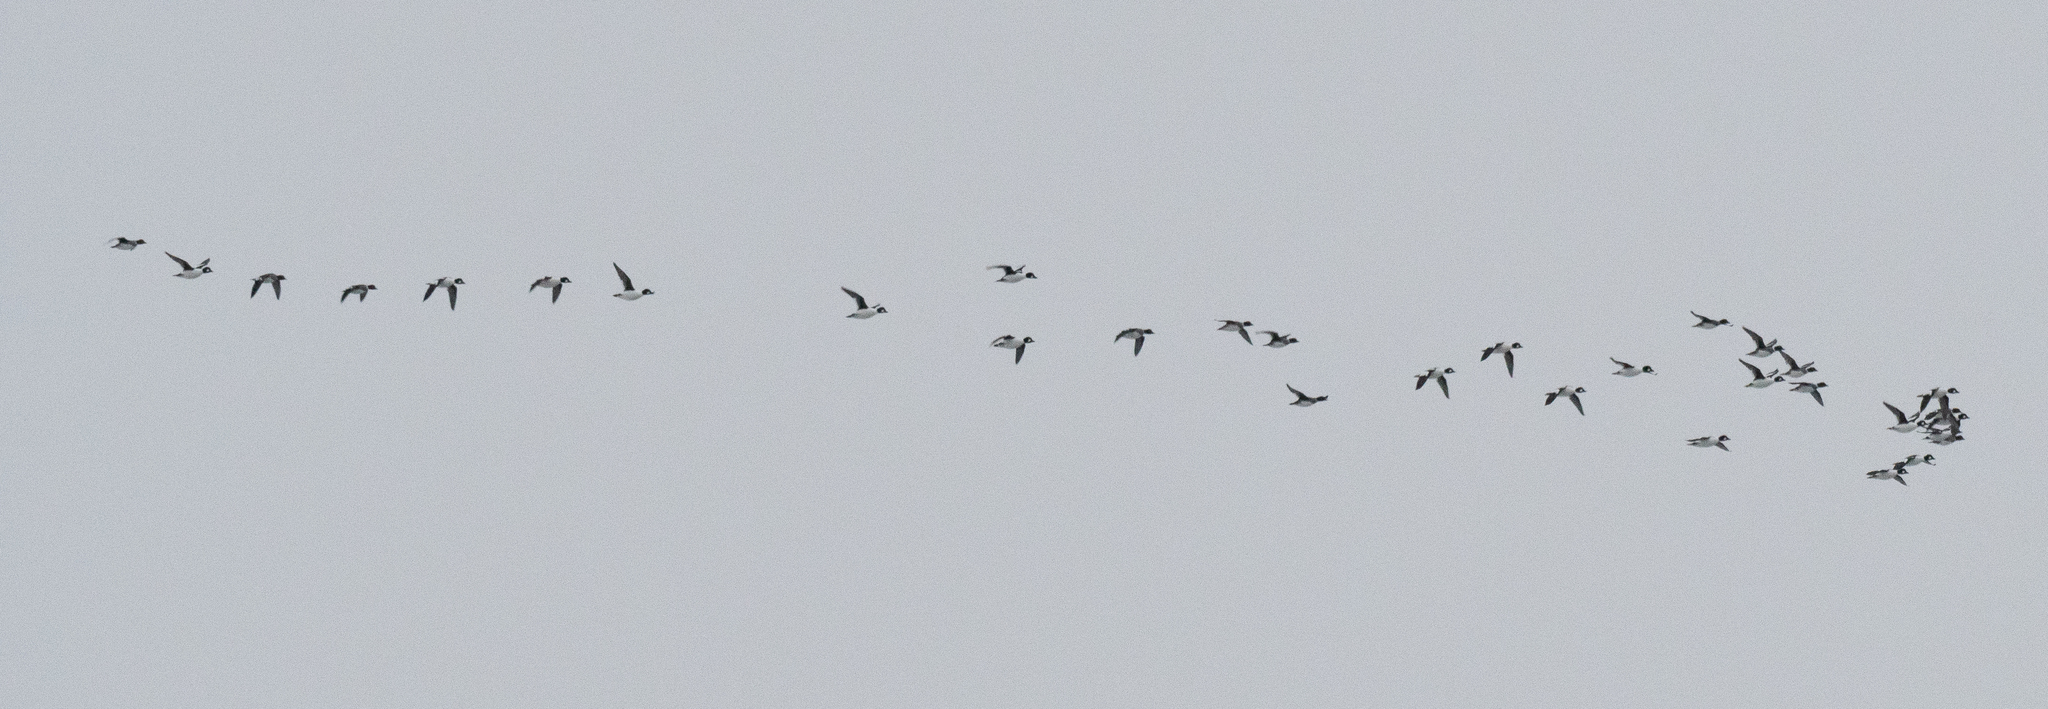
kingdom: Animalia
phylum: Chordata
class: Aves
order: Anseriformes
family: Anatidae
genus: Bucephala
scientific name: Bucephala clangula
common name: Common goldeneye
